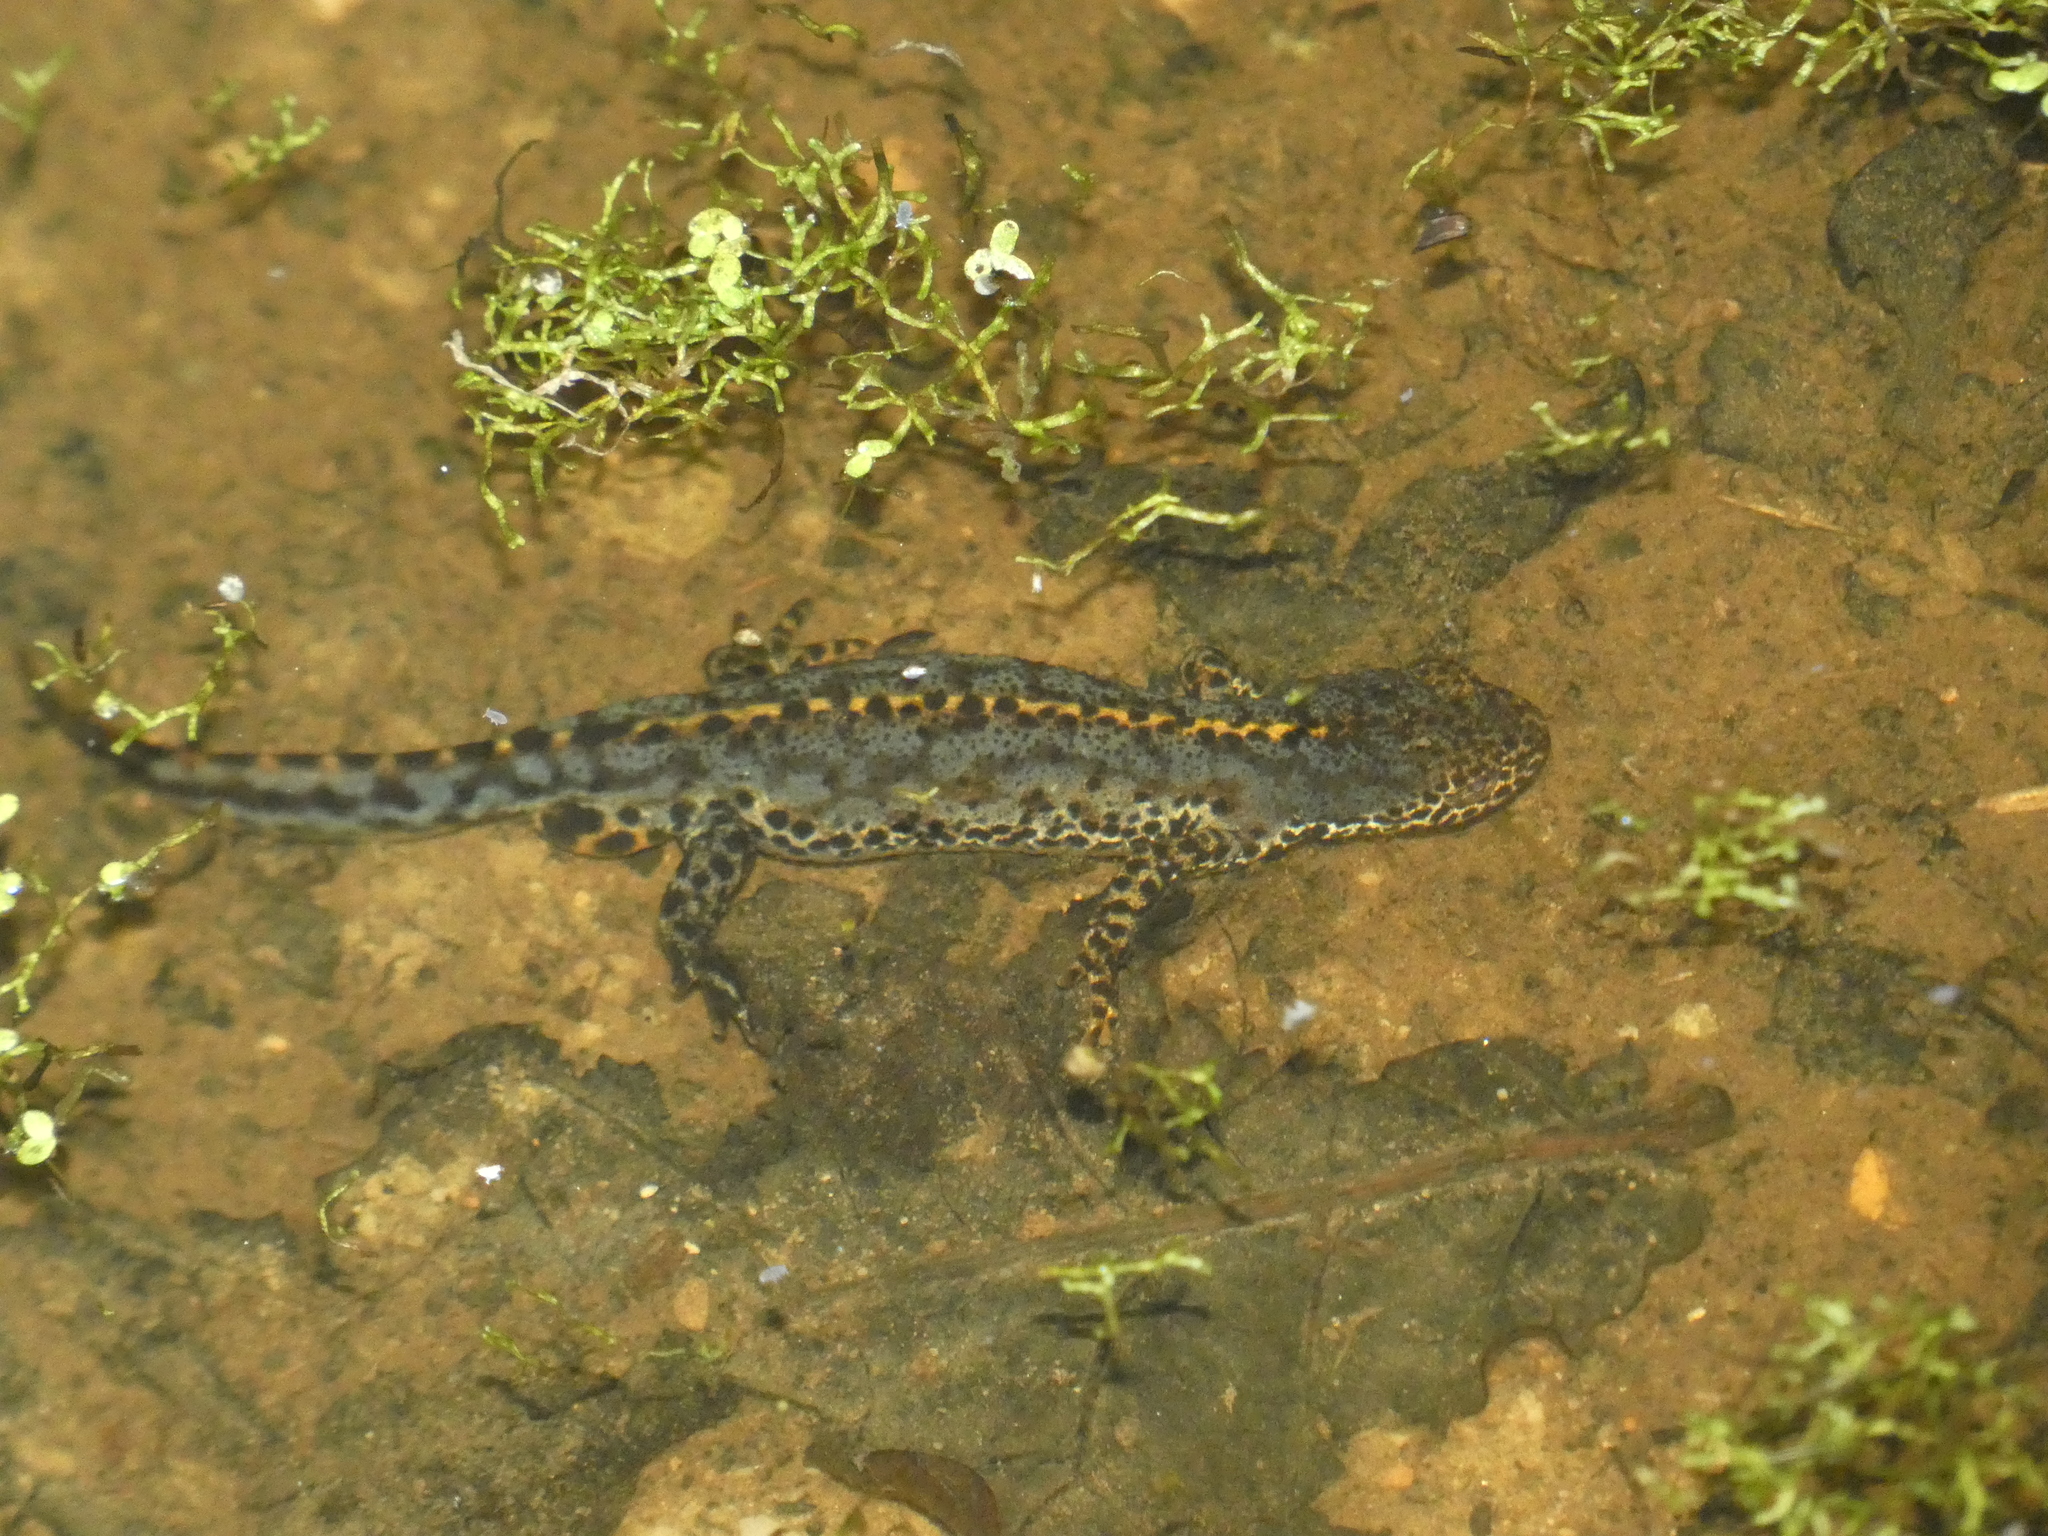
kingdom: Animalia
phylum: Chordata
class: Amphibia
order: Caudata
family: Salamandridae
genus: Ichthyosaura
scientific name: Ichthyosaura alpestris
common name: Alpine newt
